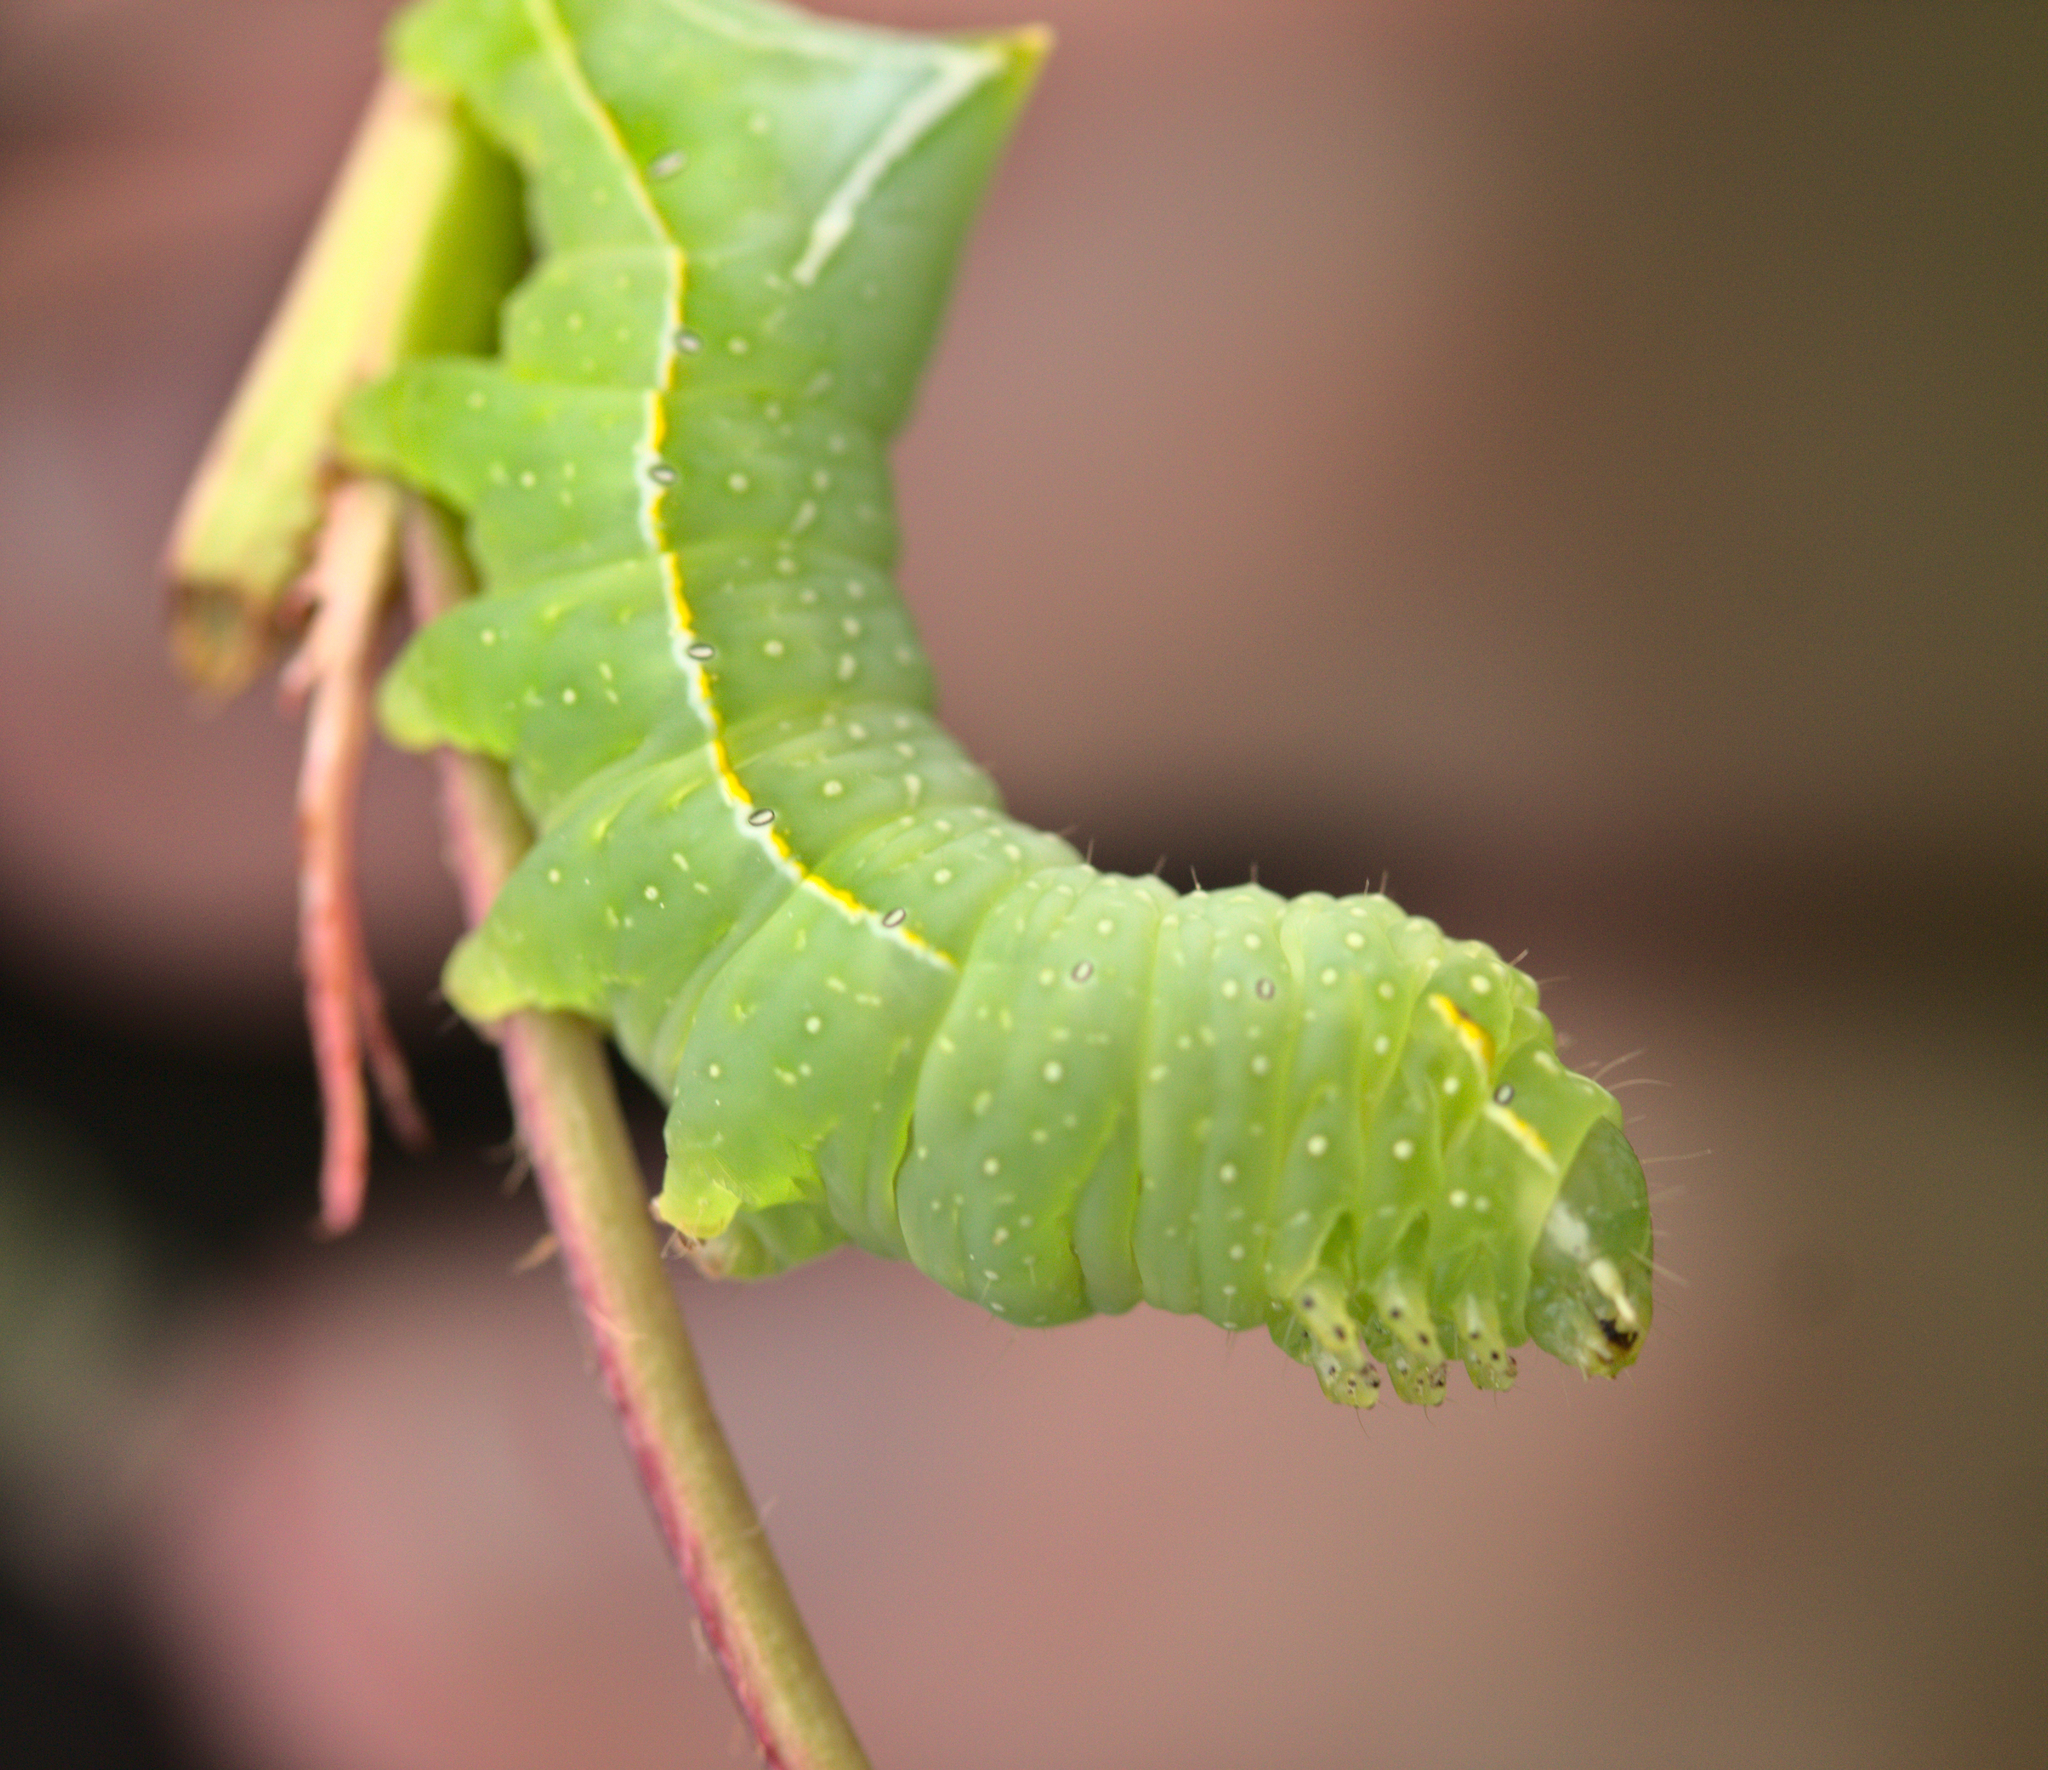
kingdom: Animalia
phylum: Arthropoda
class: Insecta
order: Lepidoptera
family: Noctuidae
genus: Amphipyra
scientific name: Amphipyra pyramidea
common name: Copper underwing
